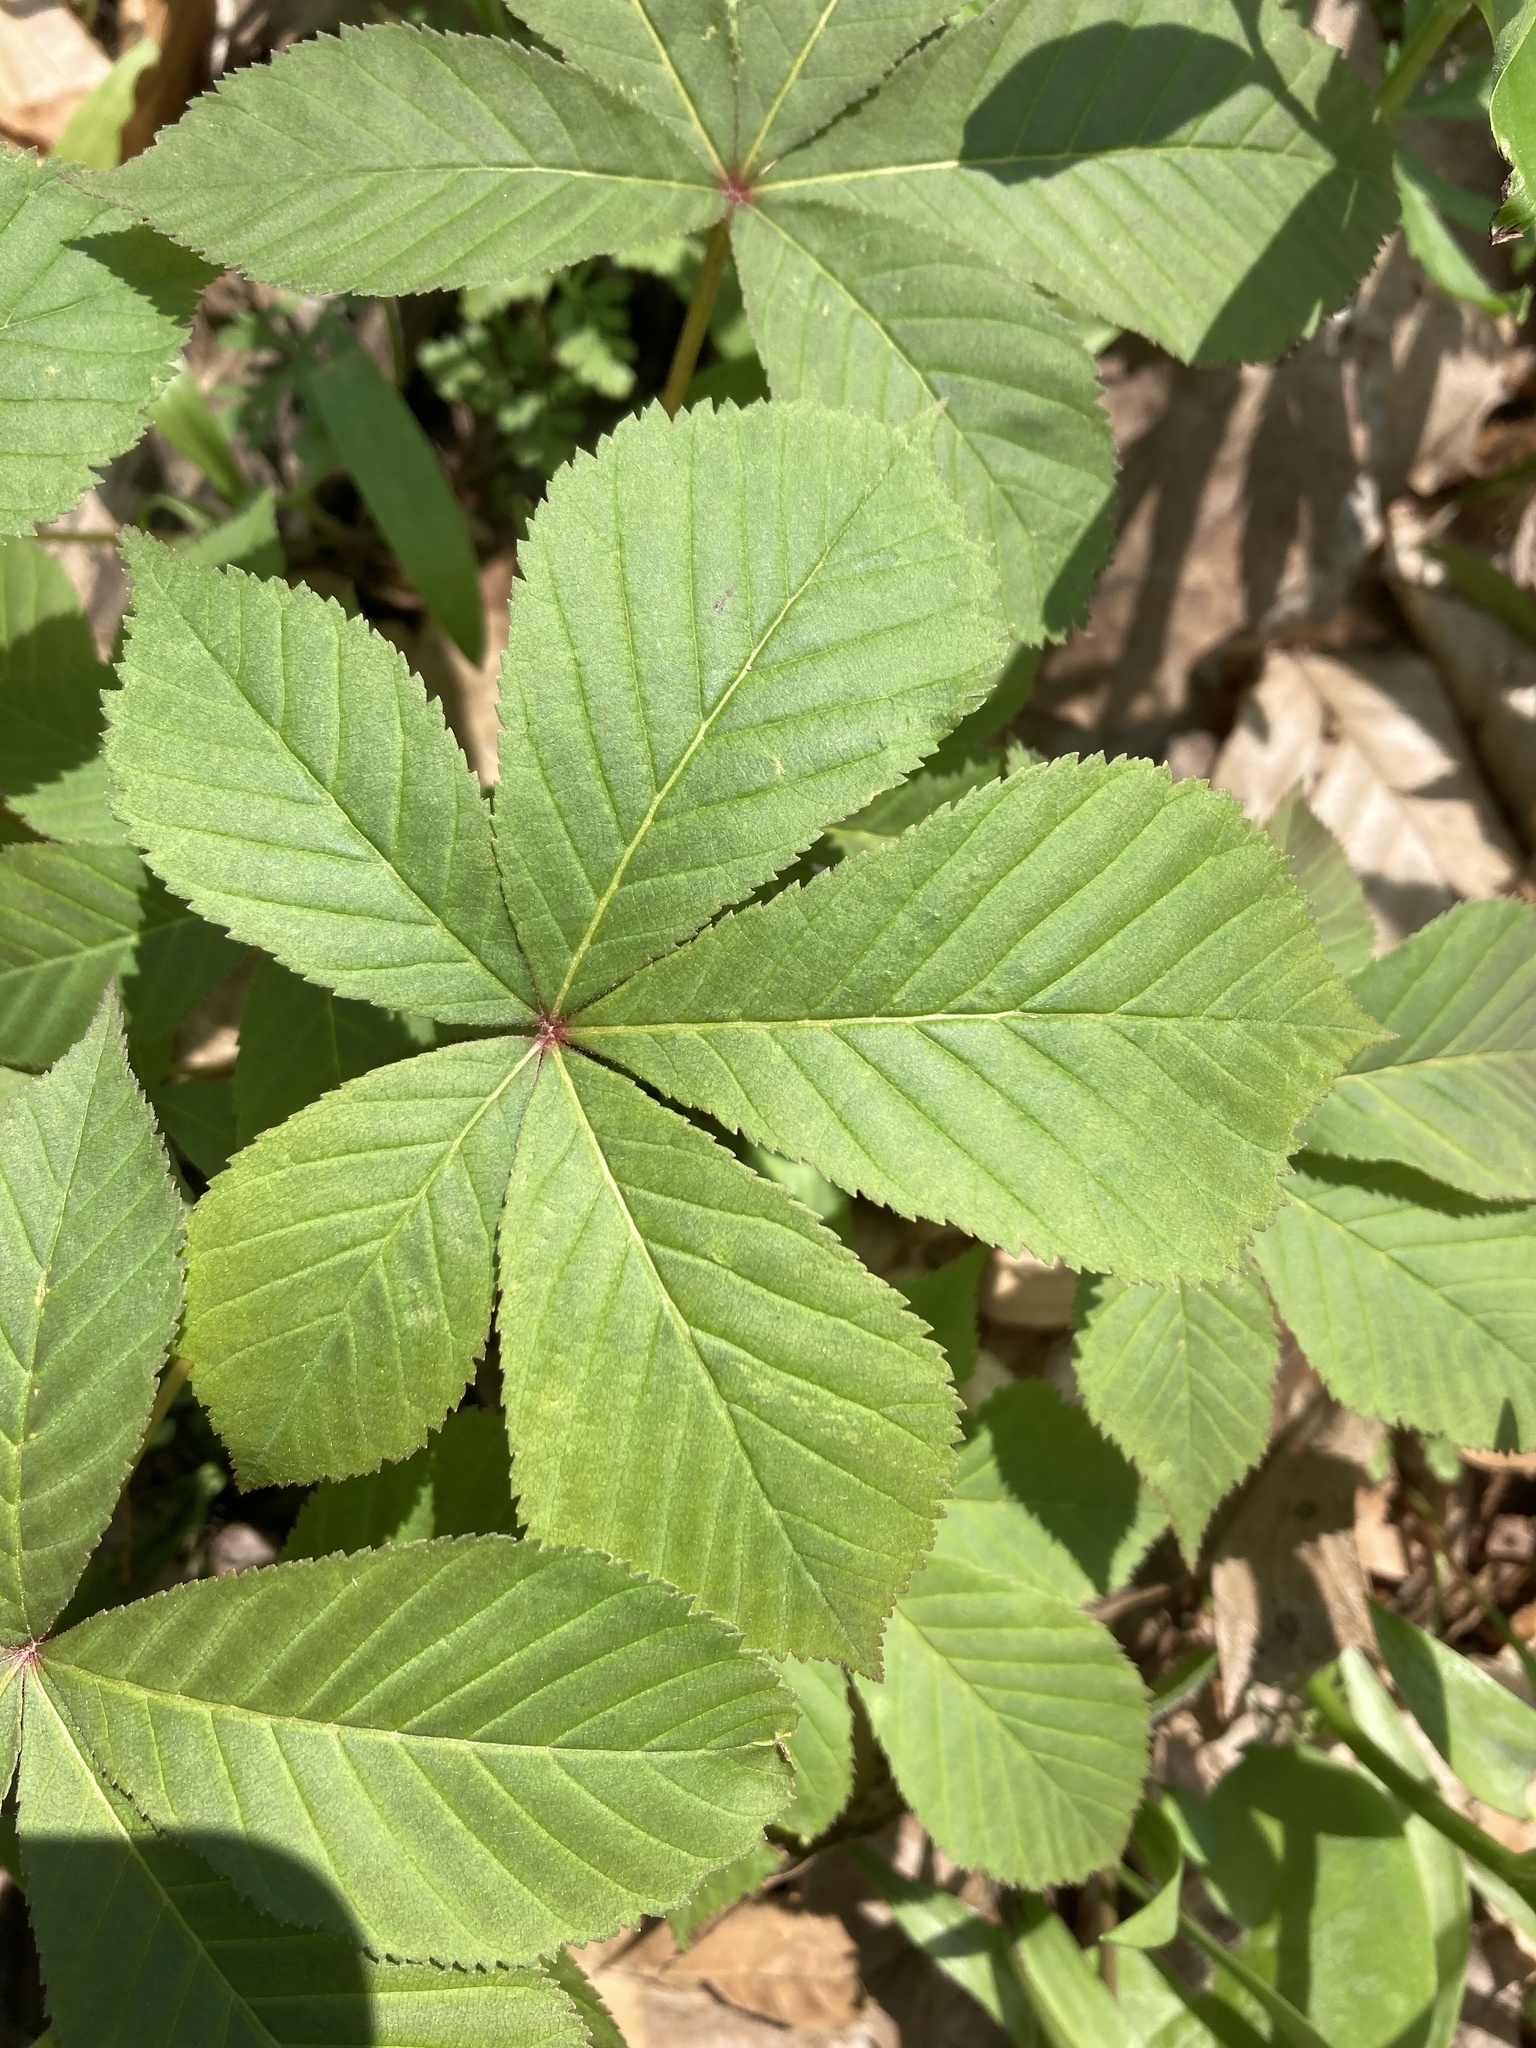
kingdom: Plantae
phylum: Tracheophyta
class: Magnoliopsida
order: Sapindales
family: Sapindaceae
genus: Aesculus
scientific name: Aesculus glabra
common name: Ohio buckeye
